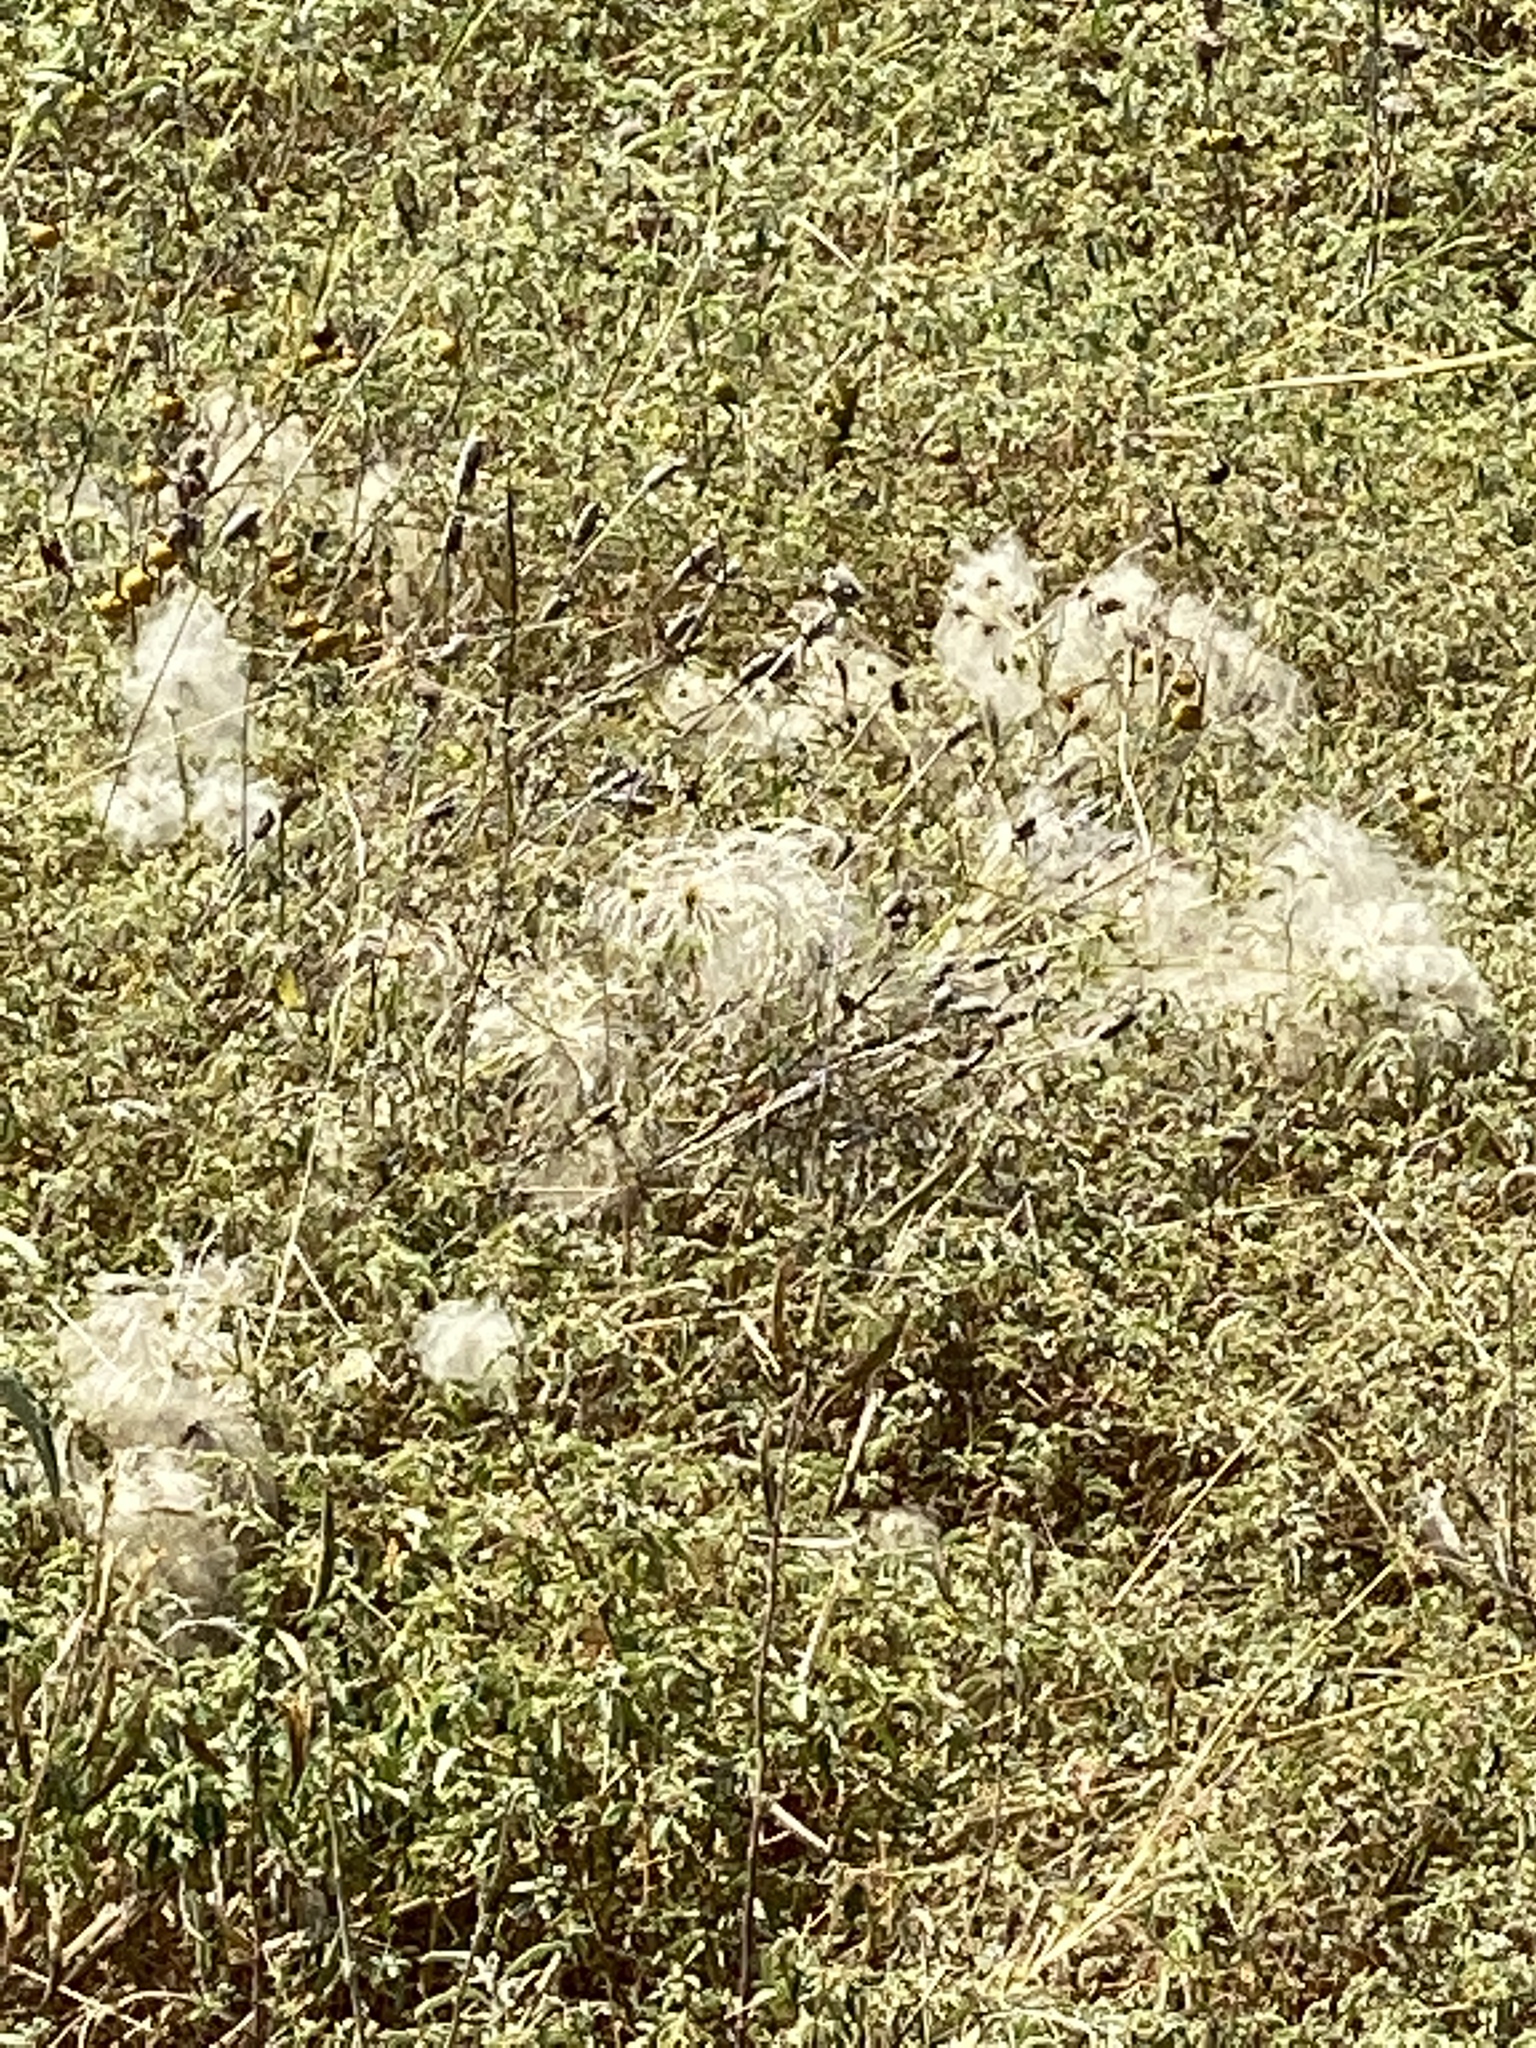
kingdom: Plantae
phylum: Tracheophyta
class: Magnoliopsida
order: Ranunculales
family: Ranunculaceae
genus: Clematis
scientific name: Clematis drummondii
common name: Texas virgin's bower
